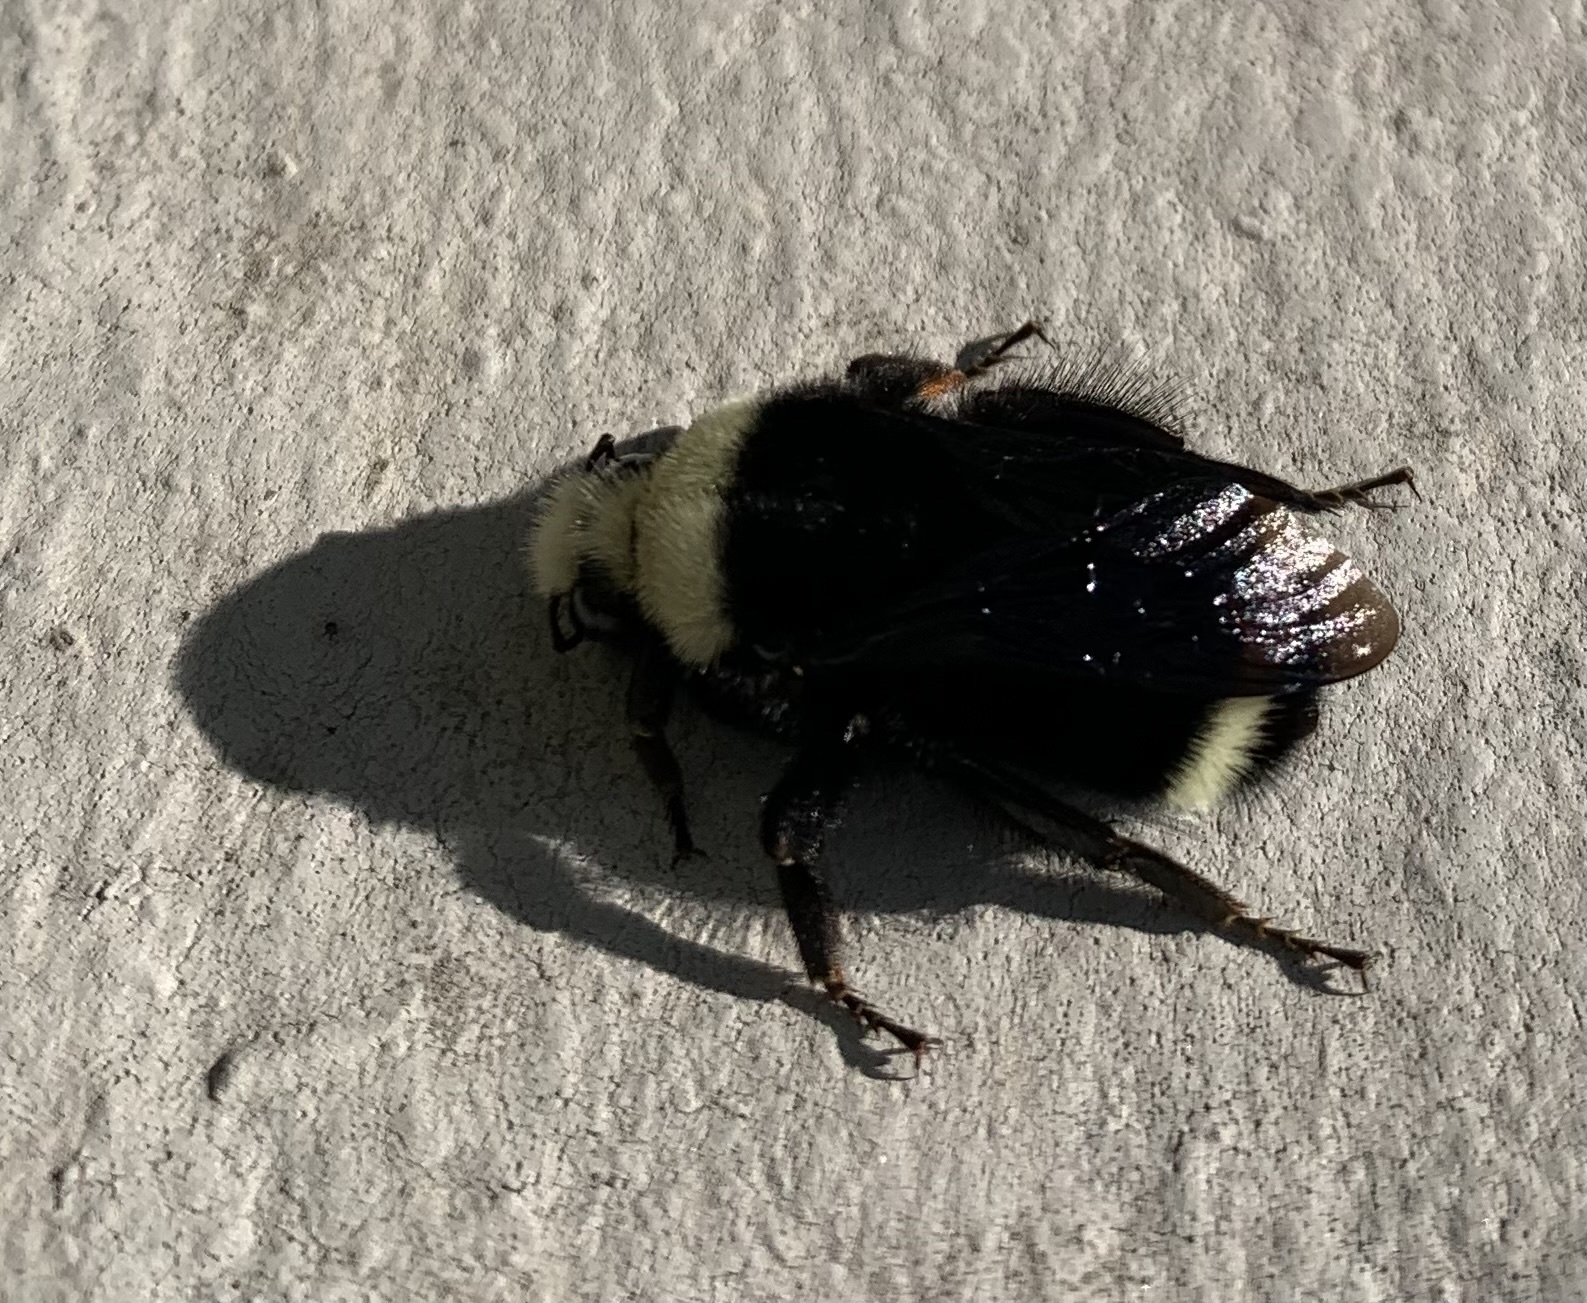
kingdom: Animalia
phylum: Arthropoda
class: Insecta
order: Hymenoptera
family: Apidae
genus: Pyrobombus
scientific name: Pyrobombus
